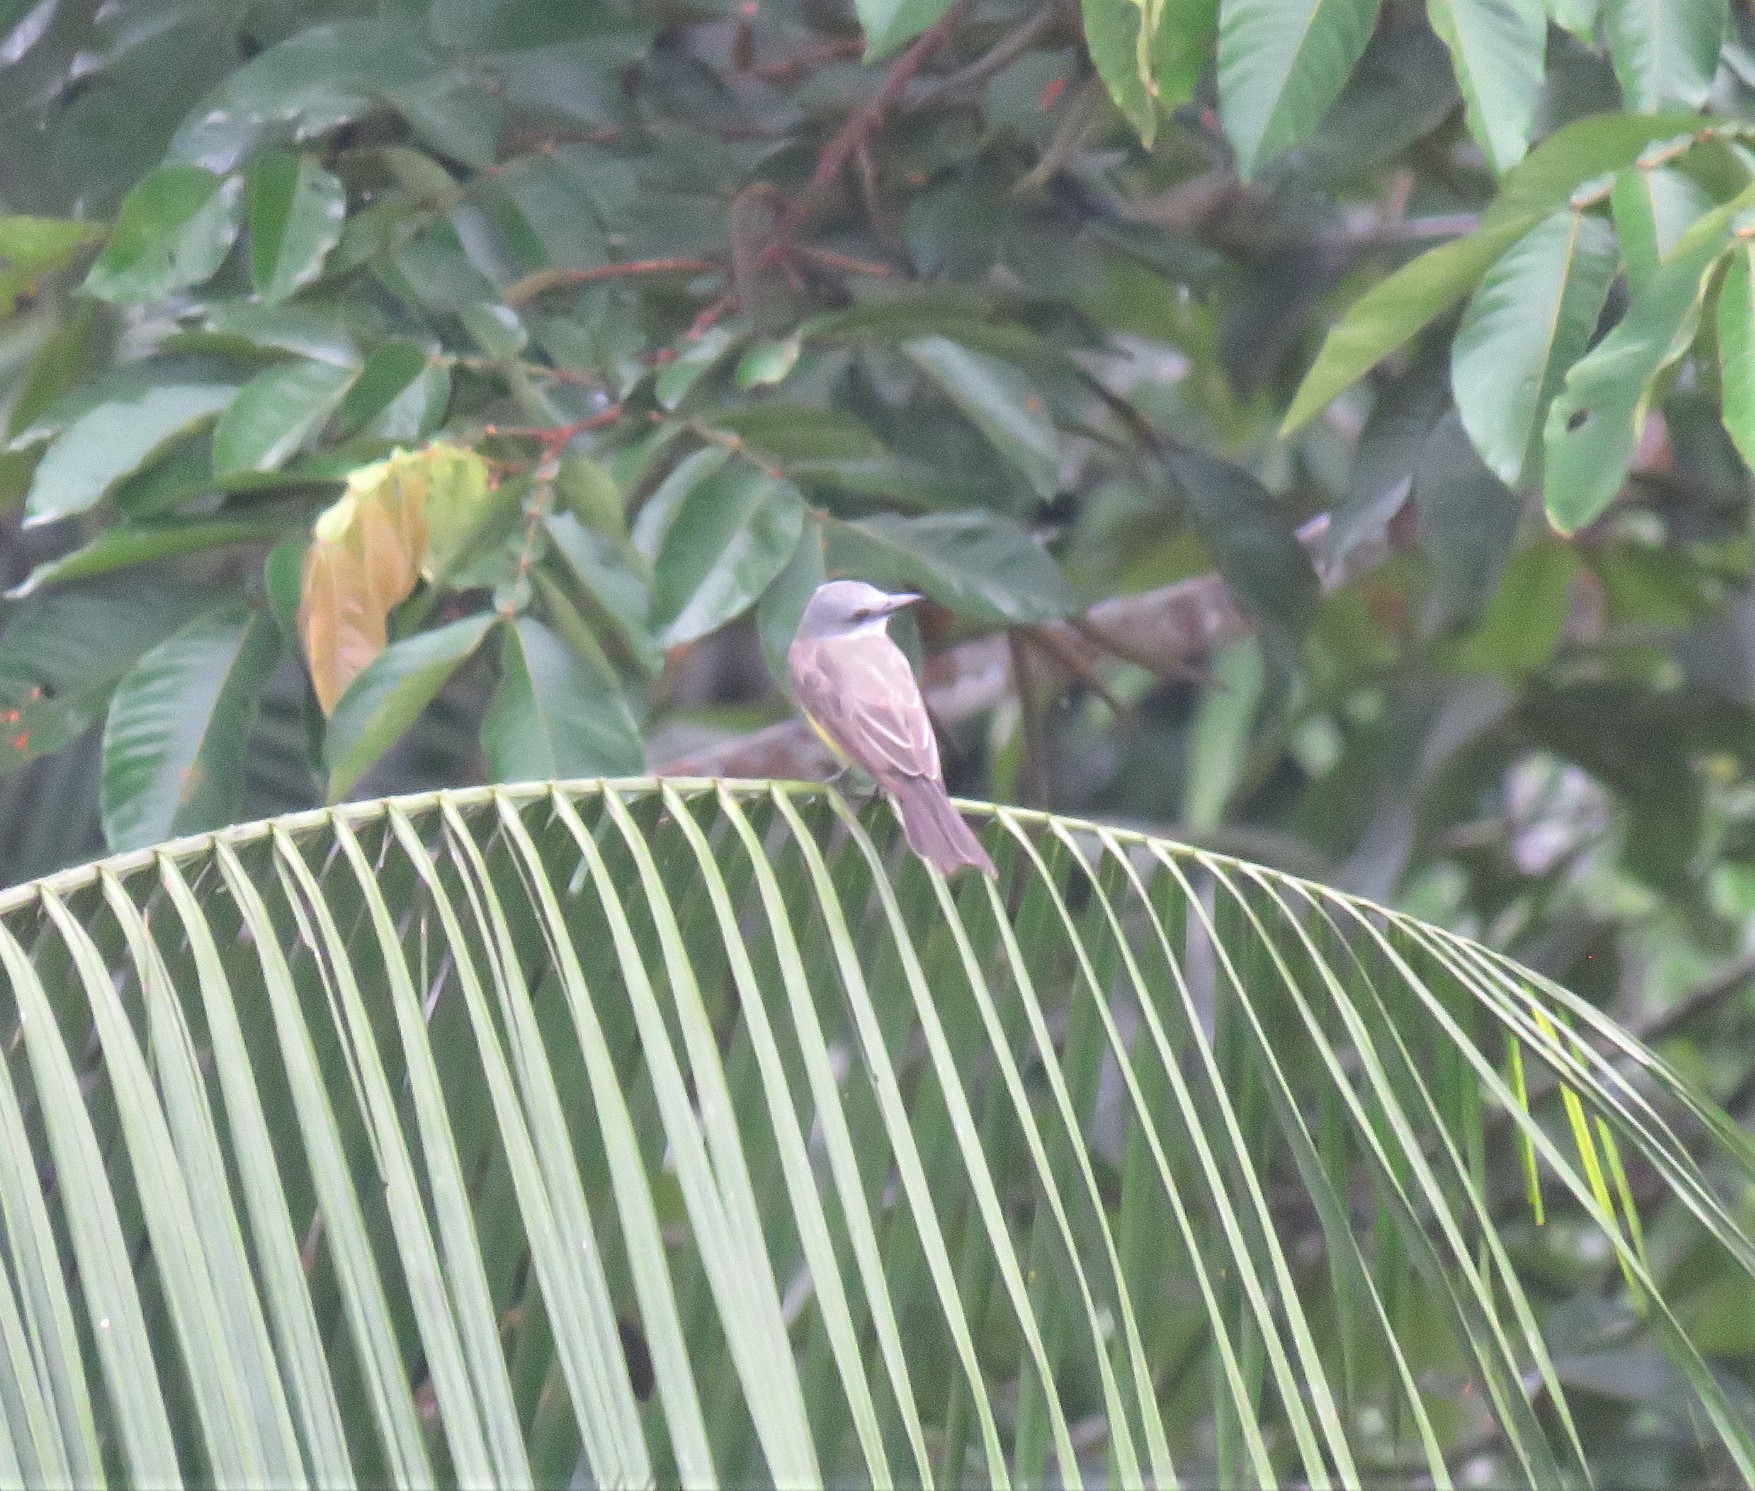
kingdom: Animalia
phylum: Chordata
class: Aves
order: Passeriformes
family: Tyrannidae
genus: Tyrannus
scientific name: Tyrannus melancholicus
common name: Tropical kingbird
